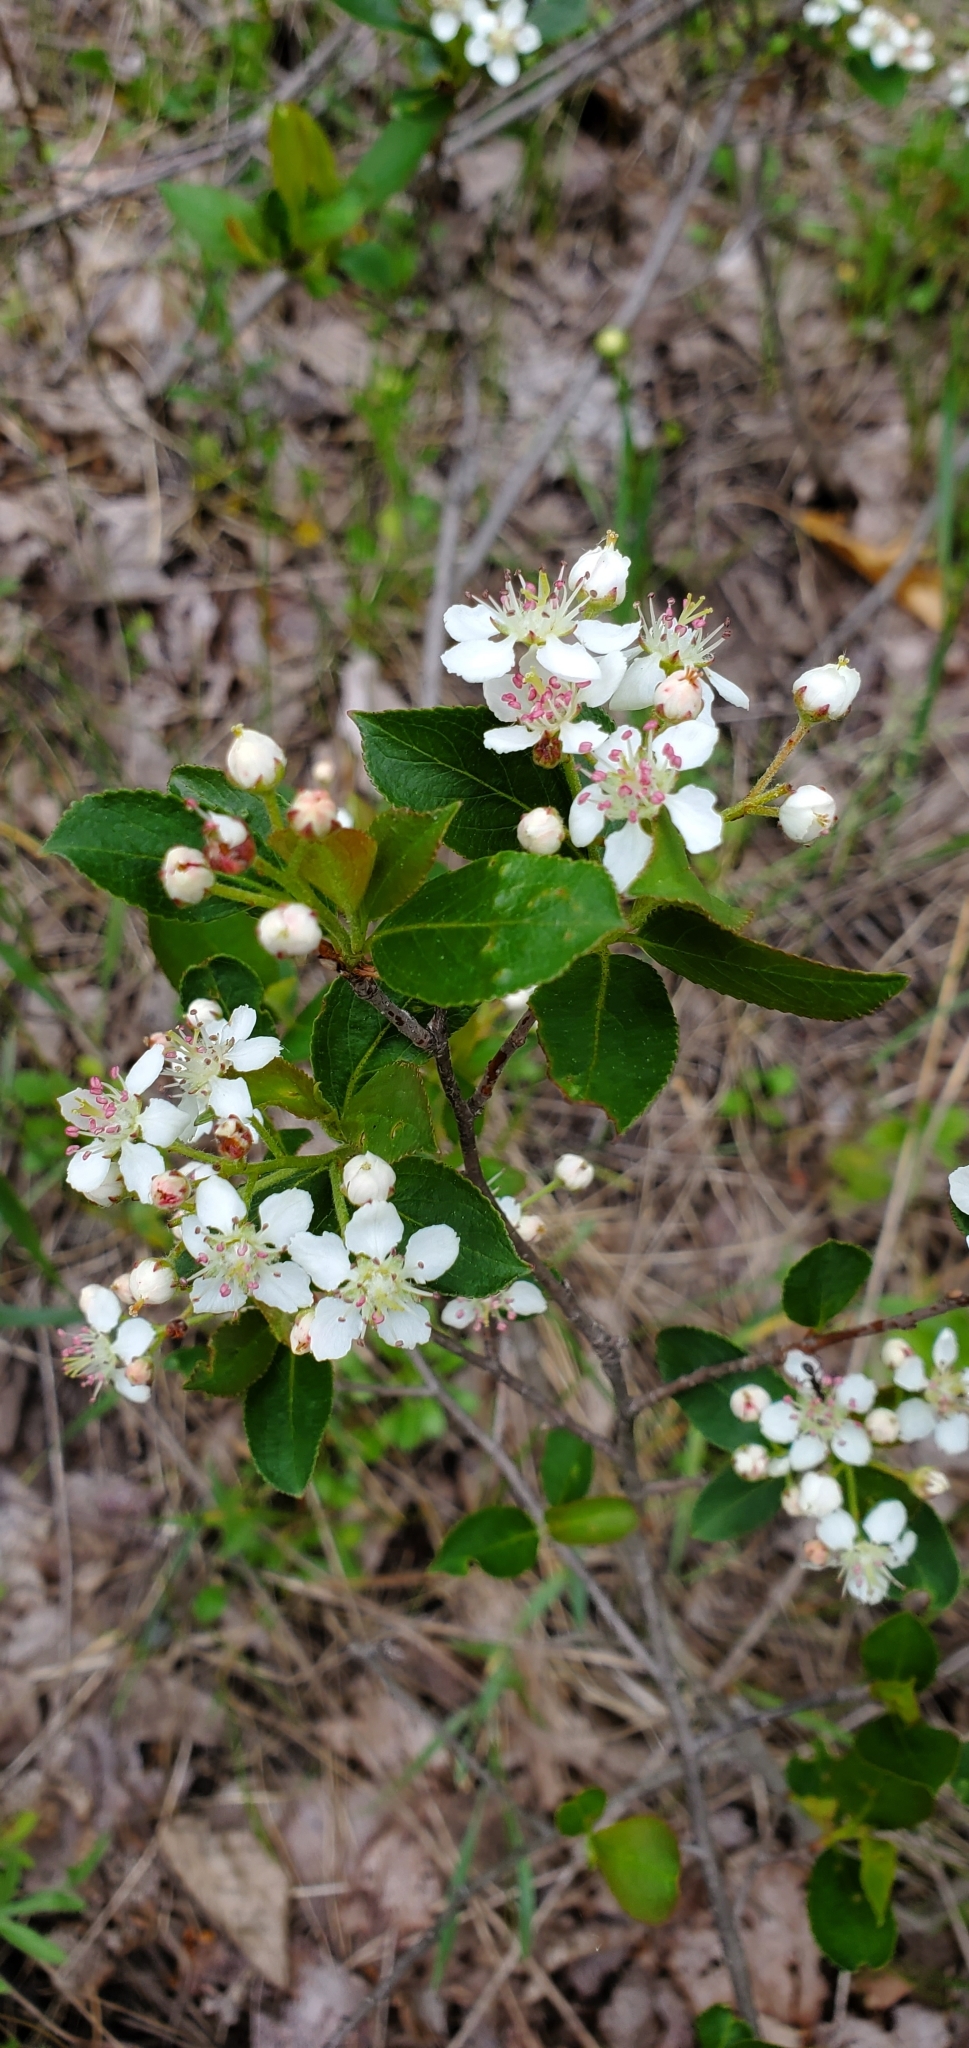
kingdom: Plantae
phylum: Tracheophyta
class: Magnoliopsida
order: Rosales
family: Rosaceae
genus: Aronia
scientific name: Aronia melanocarpa
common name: Black chokeberry
